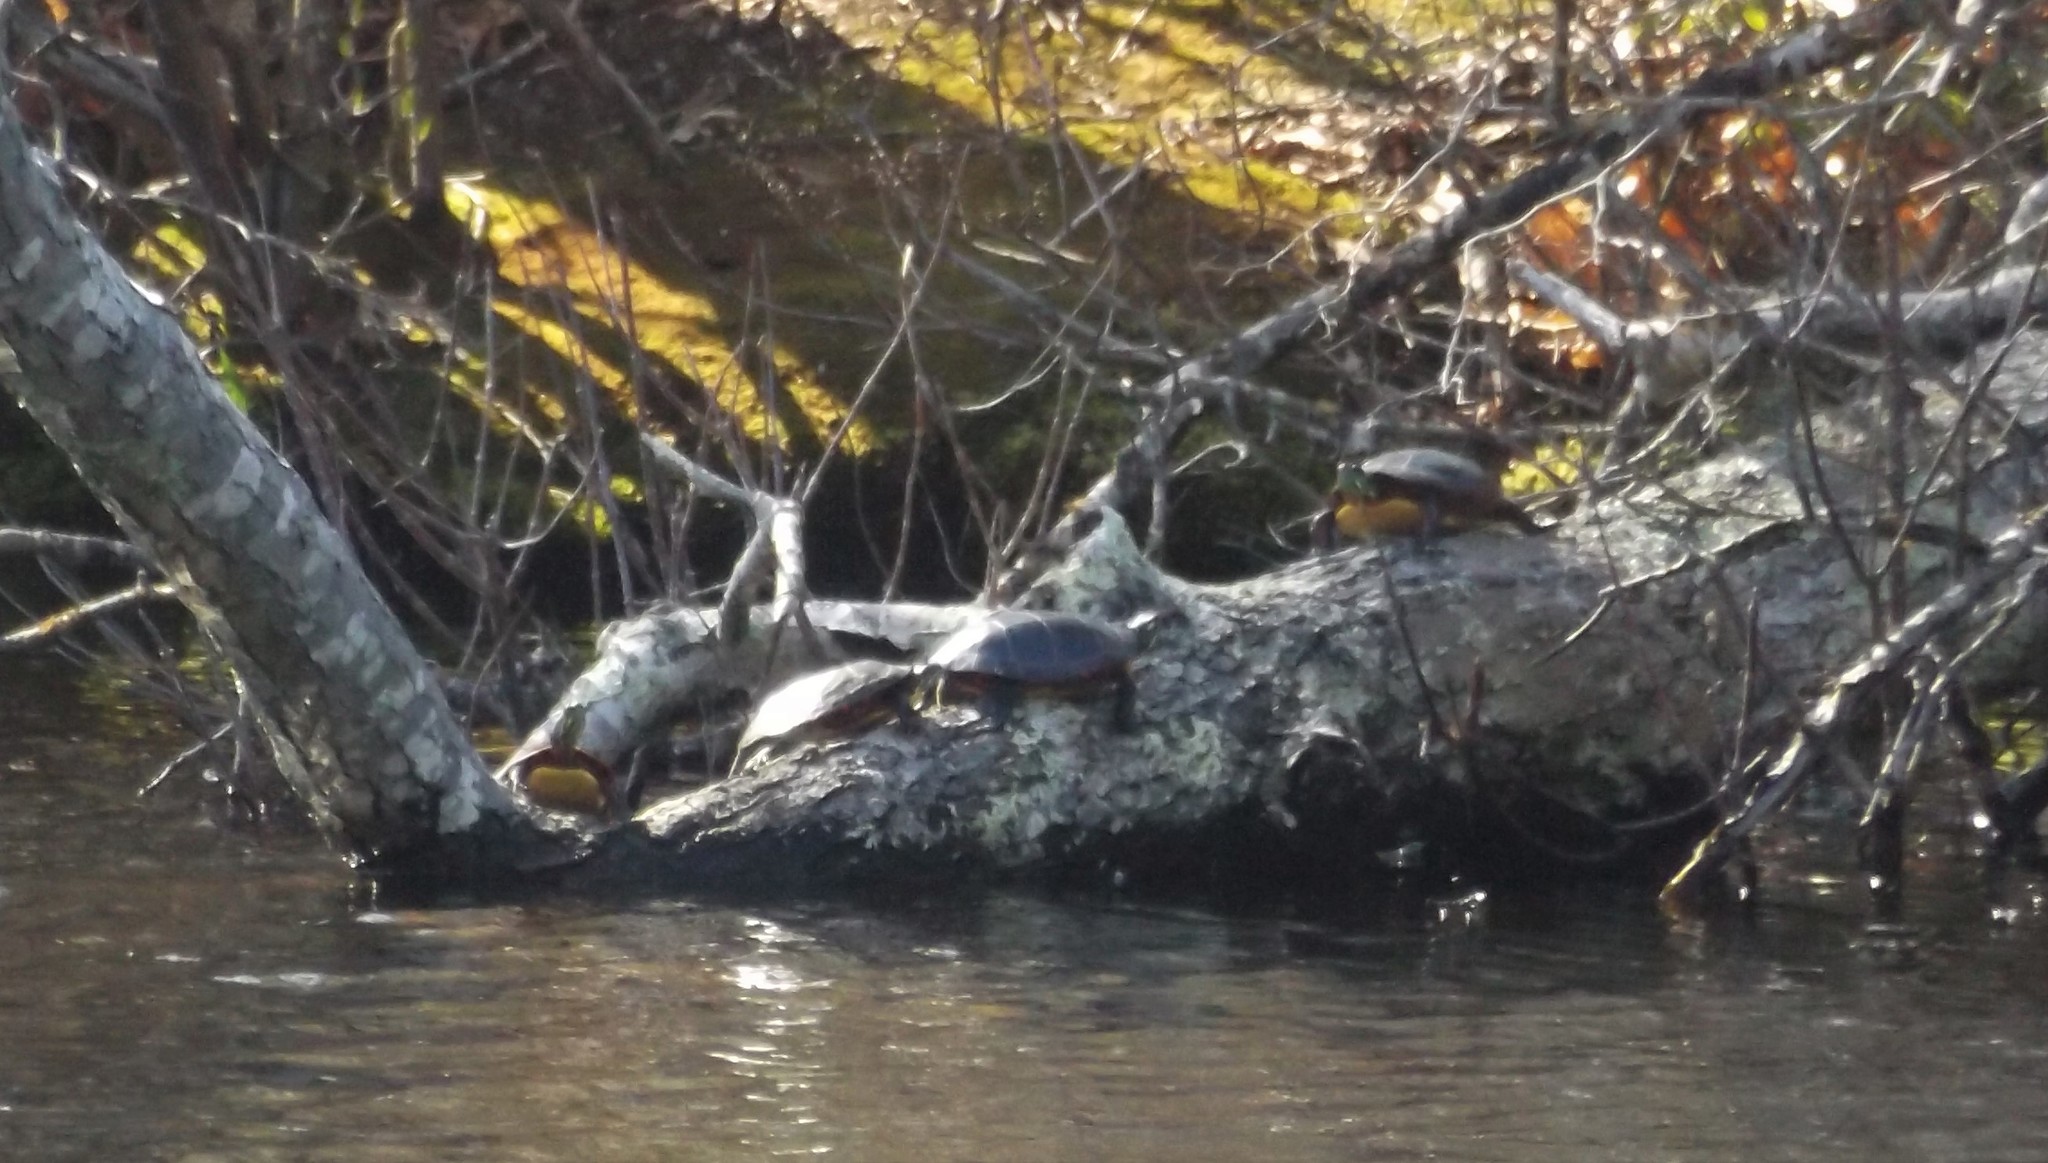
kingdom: Animalia
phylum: Chordata
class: Testudines
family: Emydidae
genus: Chrysemys
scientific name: Chrysemys picta
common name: Painted turtle
